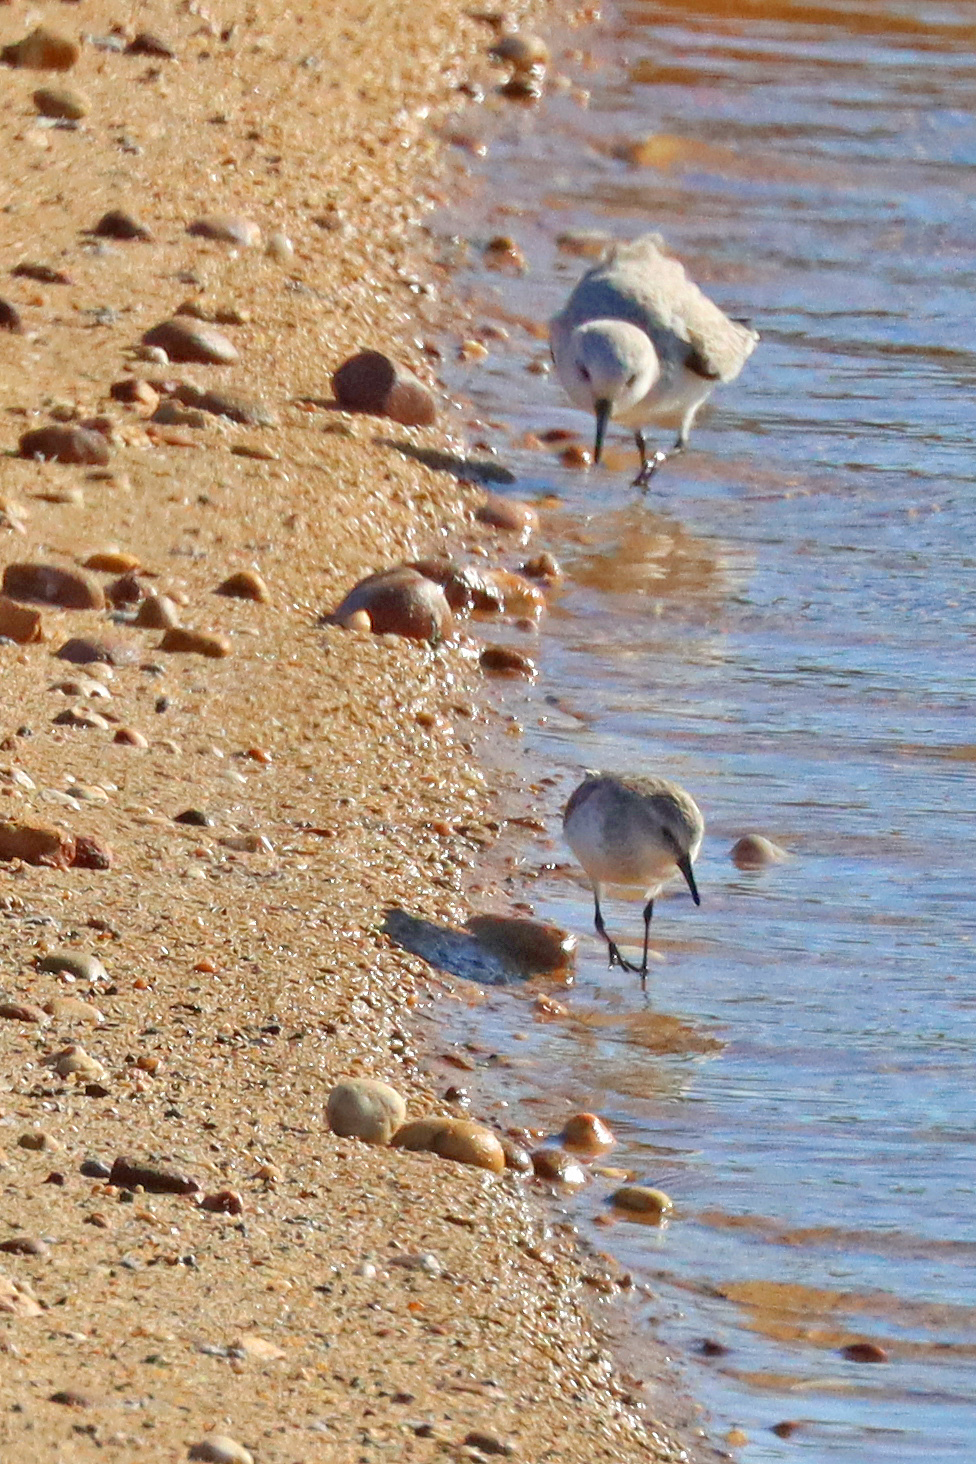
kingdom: Animalia
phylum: Chordata
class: Aves
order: Charadriiformes
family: Scolopacidae
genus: Calidris
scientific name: Calidris minuta
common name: Little stint
